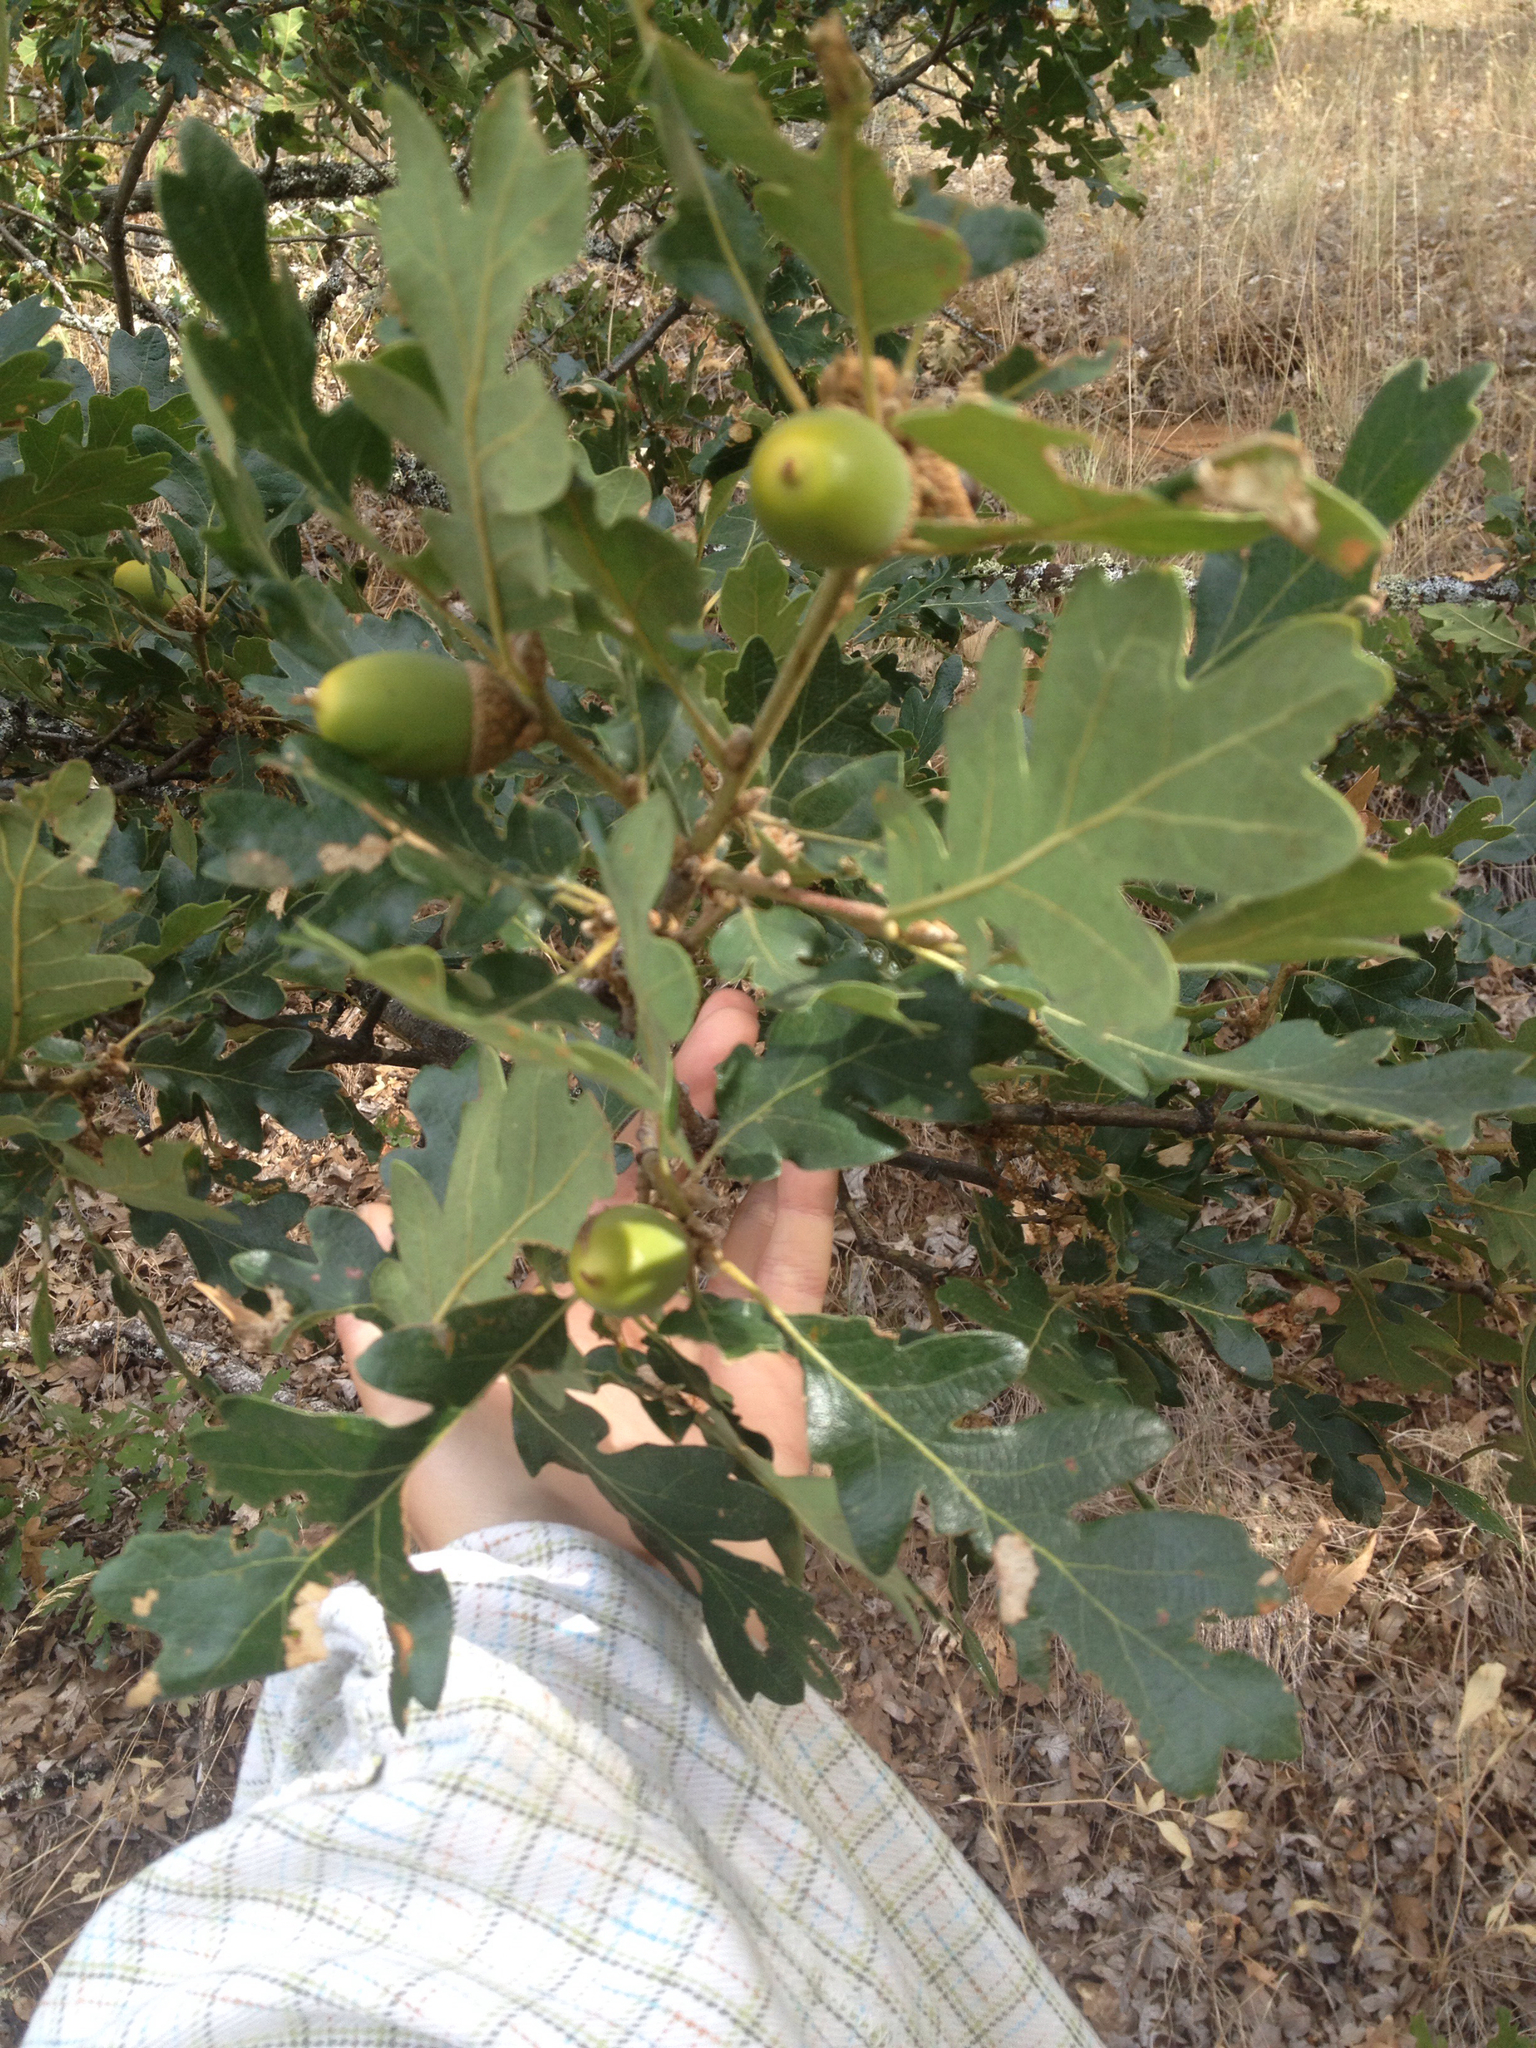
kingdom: Plantae
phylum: Tracheophyta
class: Magnoliopsida
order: Fagales
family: Fagaceae
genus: Quercus
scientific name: Quercus garryana
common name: Garry oak
